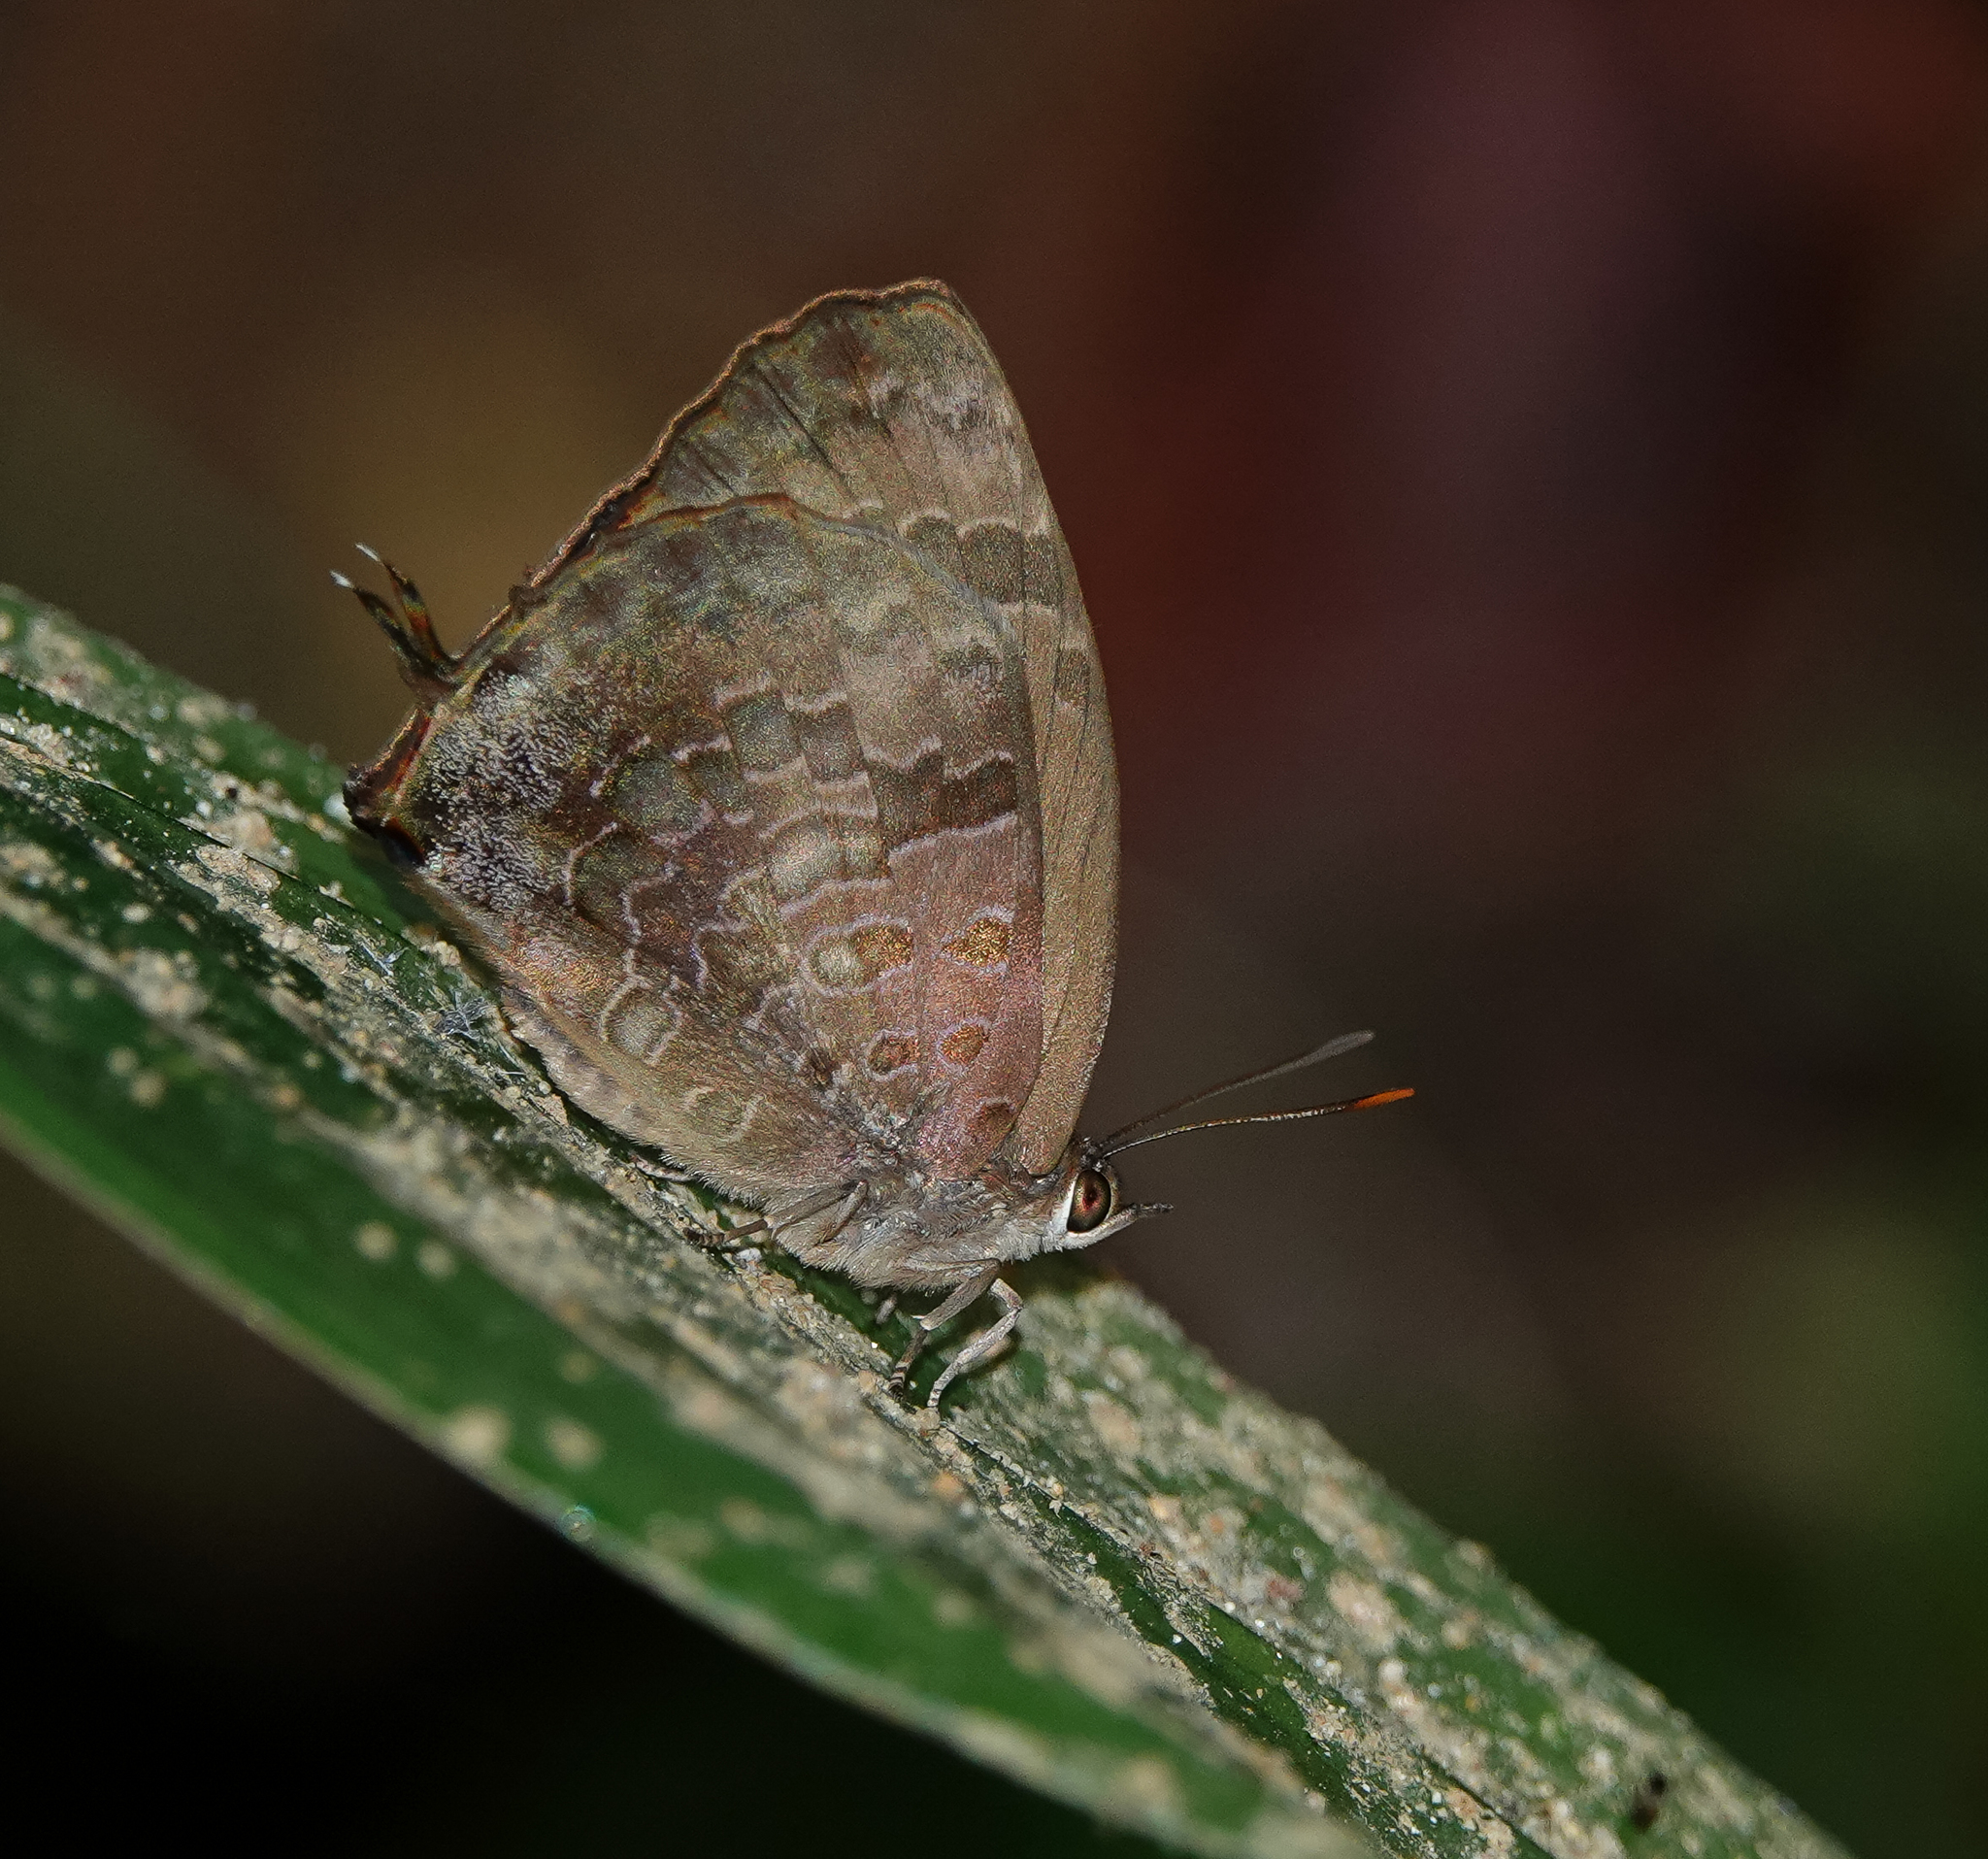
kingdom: Animalia
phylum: Arthropoda
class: Insecta
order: Lepidoptera
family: Lycaenidae
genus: Arhopala
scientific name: Arhopala bazalus
